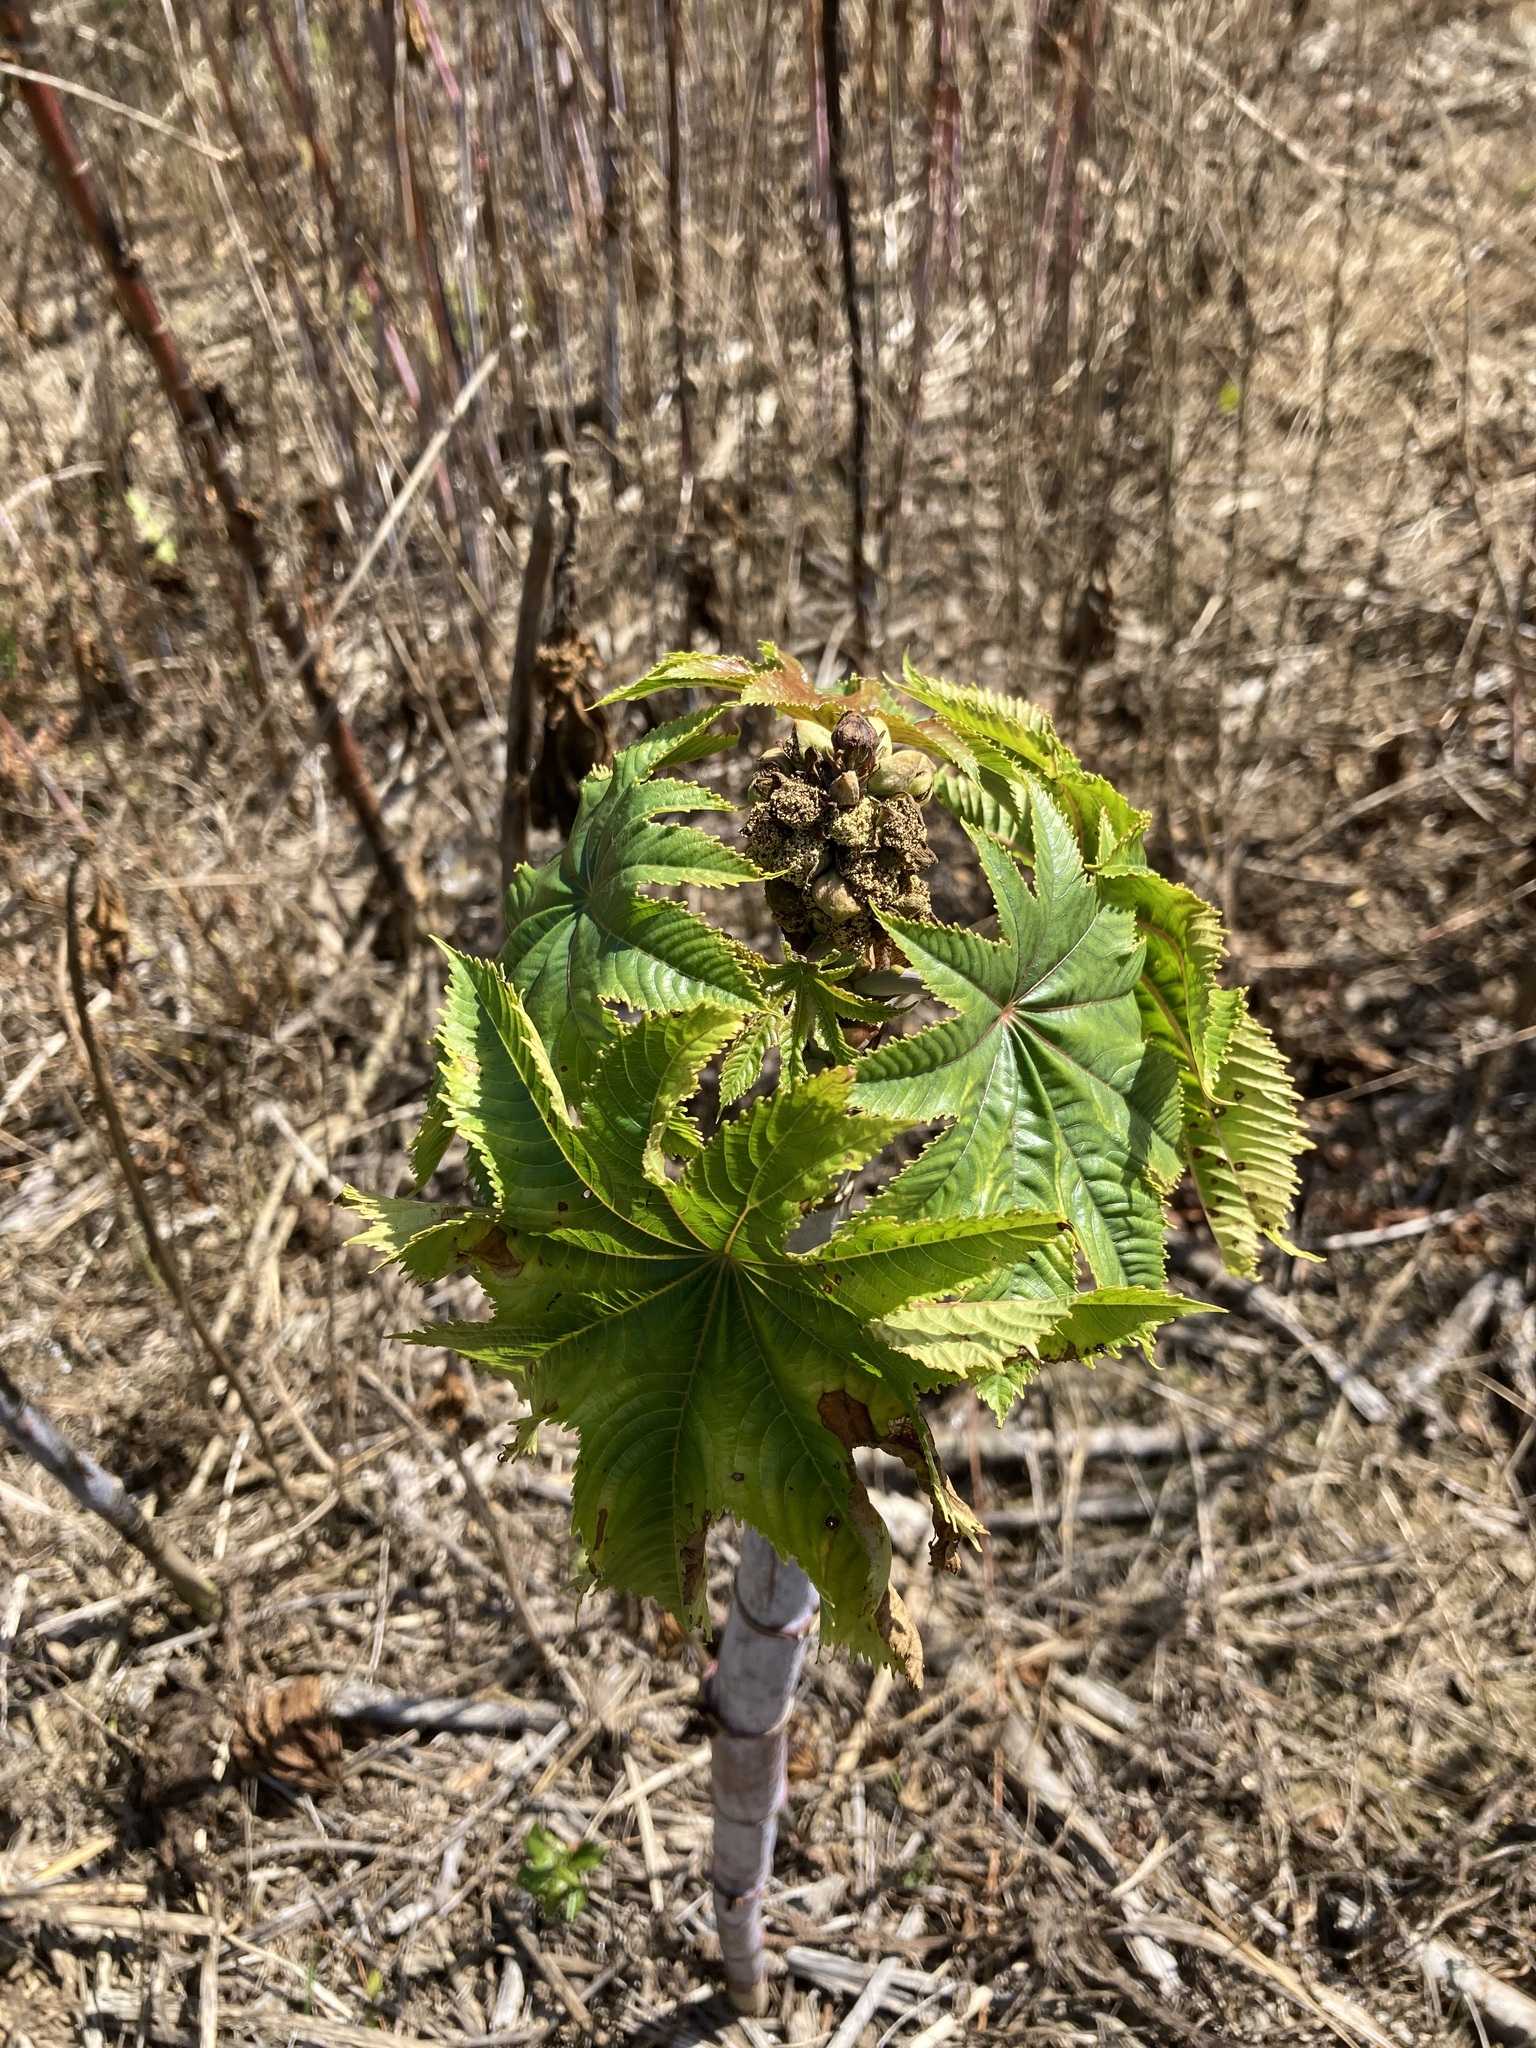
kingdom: Plantae
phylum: Tracheophyta
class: Magnoliopsida
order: Malpighiales
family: Euphorbiaceae
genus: Ricinus
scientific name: Ricinus communis
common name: Castor-oil-plant
